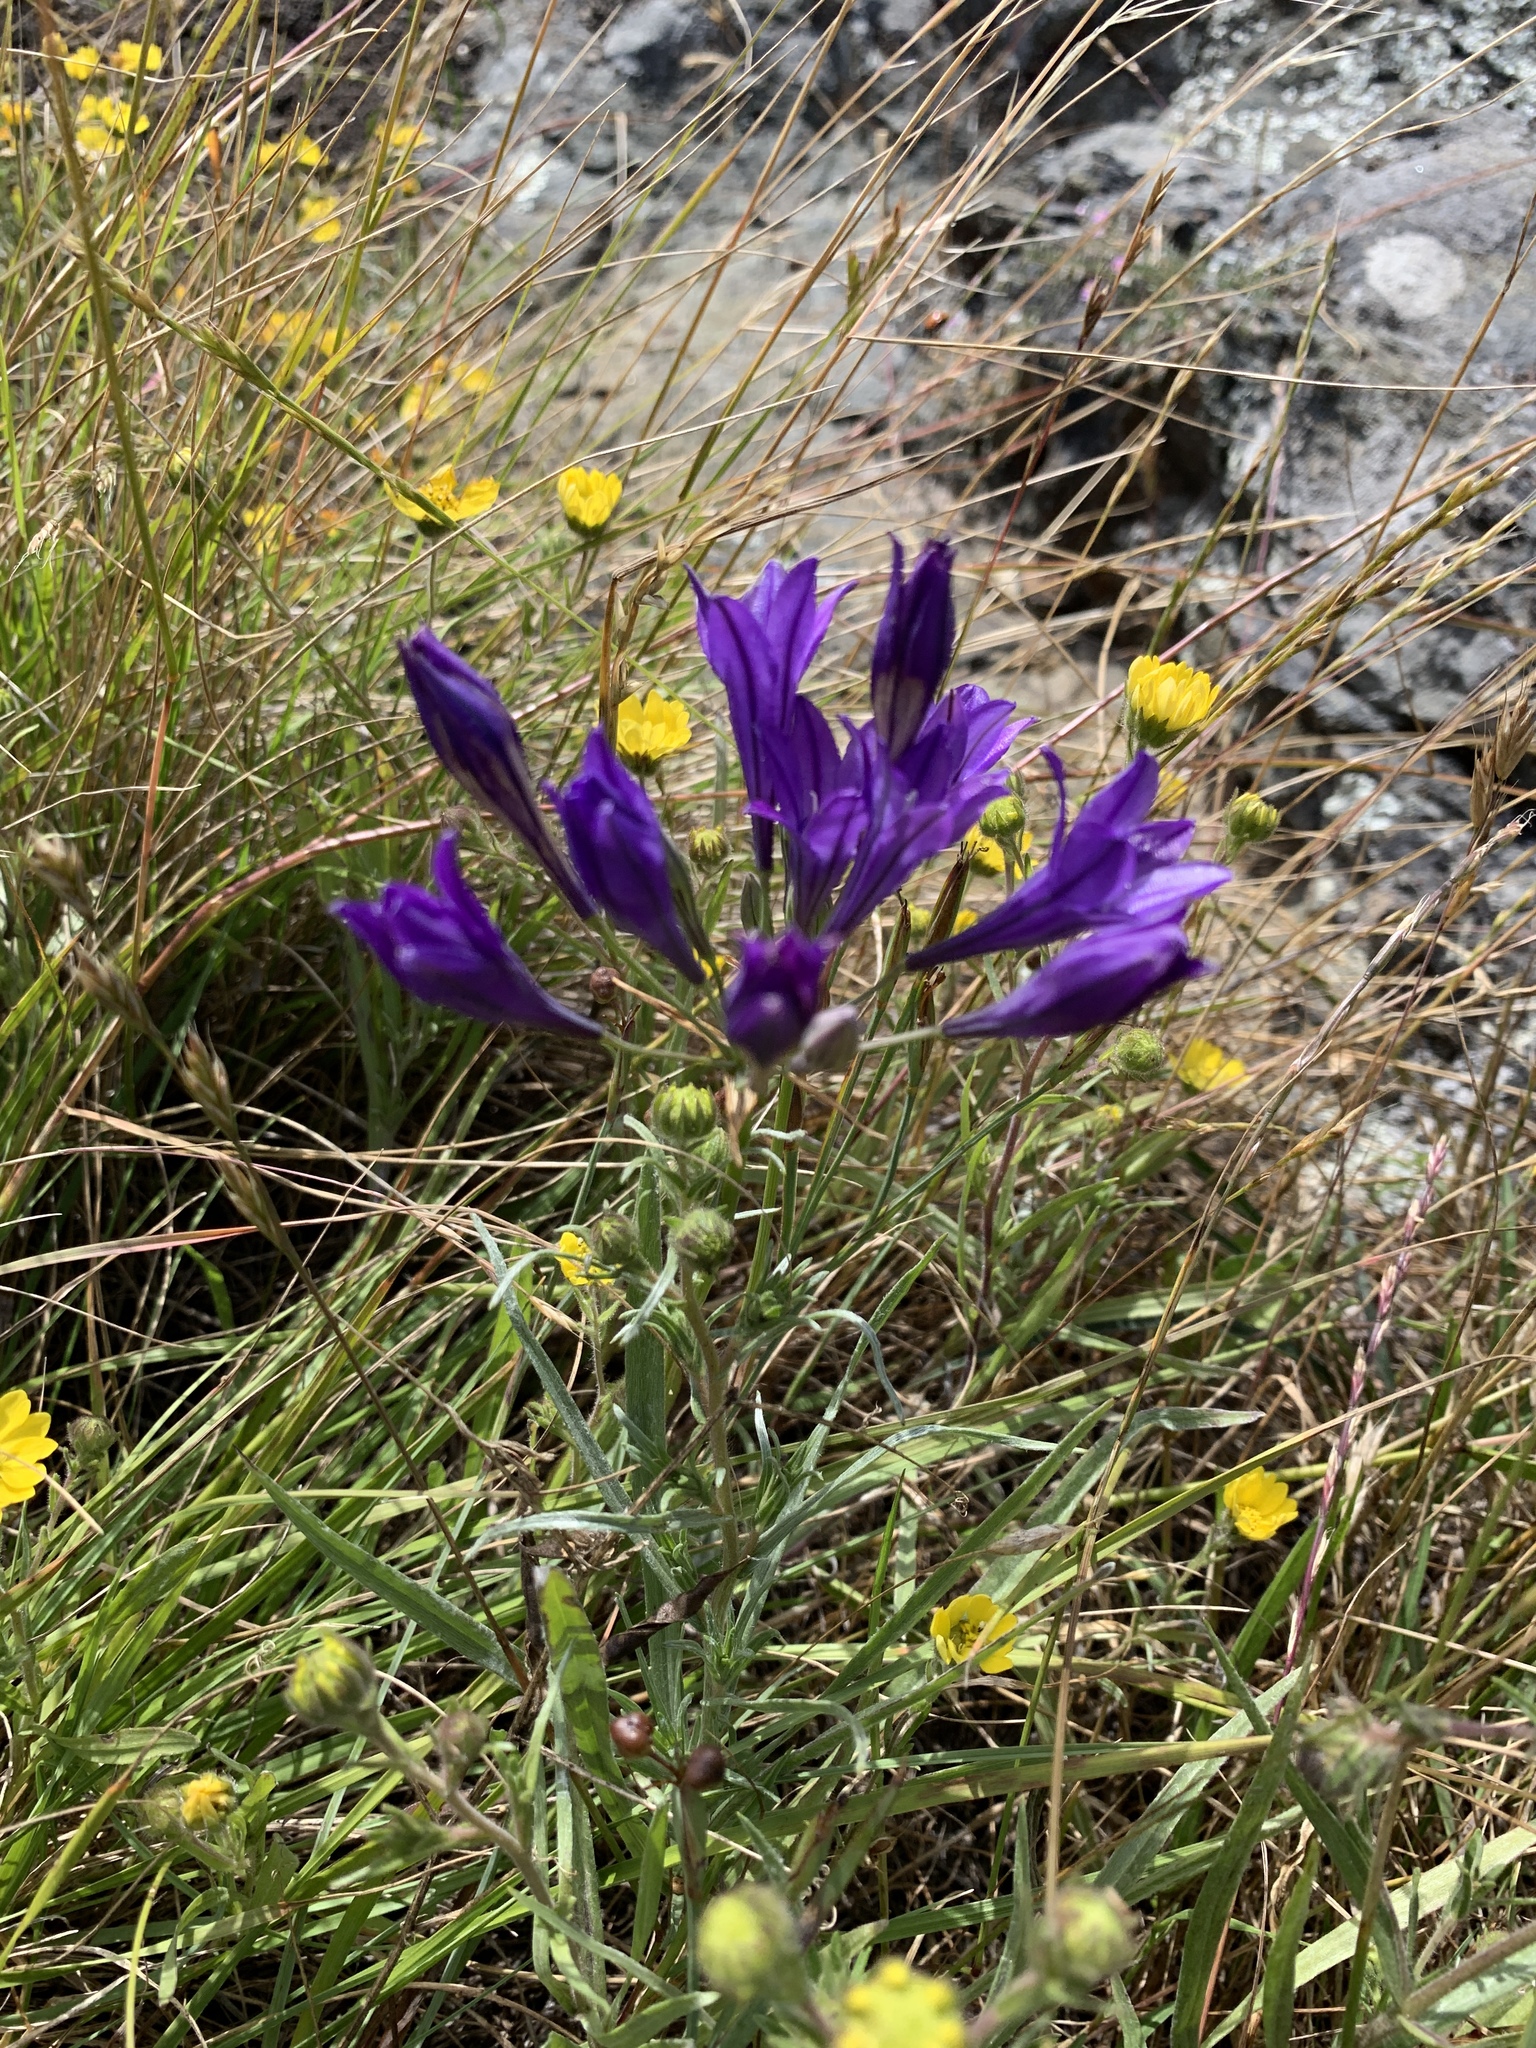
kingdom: Plantae
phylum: Tracheophyta
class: Liliopsida
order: Asparagales
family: Asparagaceae
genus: Triteleia
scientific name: Triteleia laxa
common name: Triplet-lily
